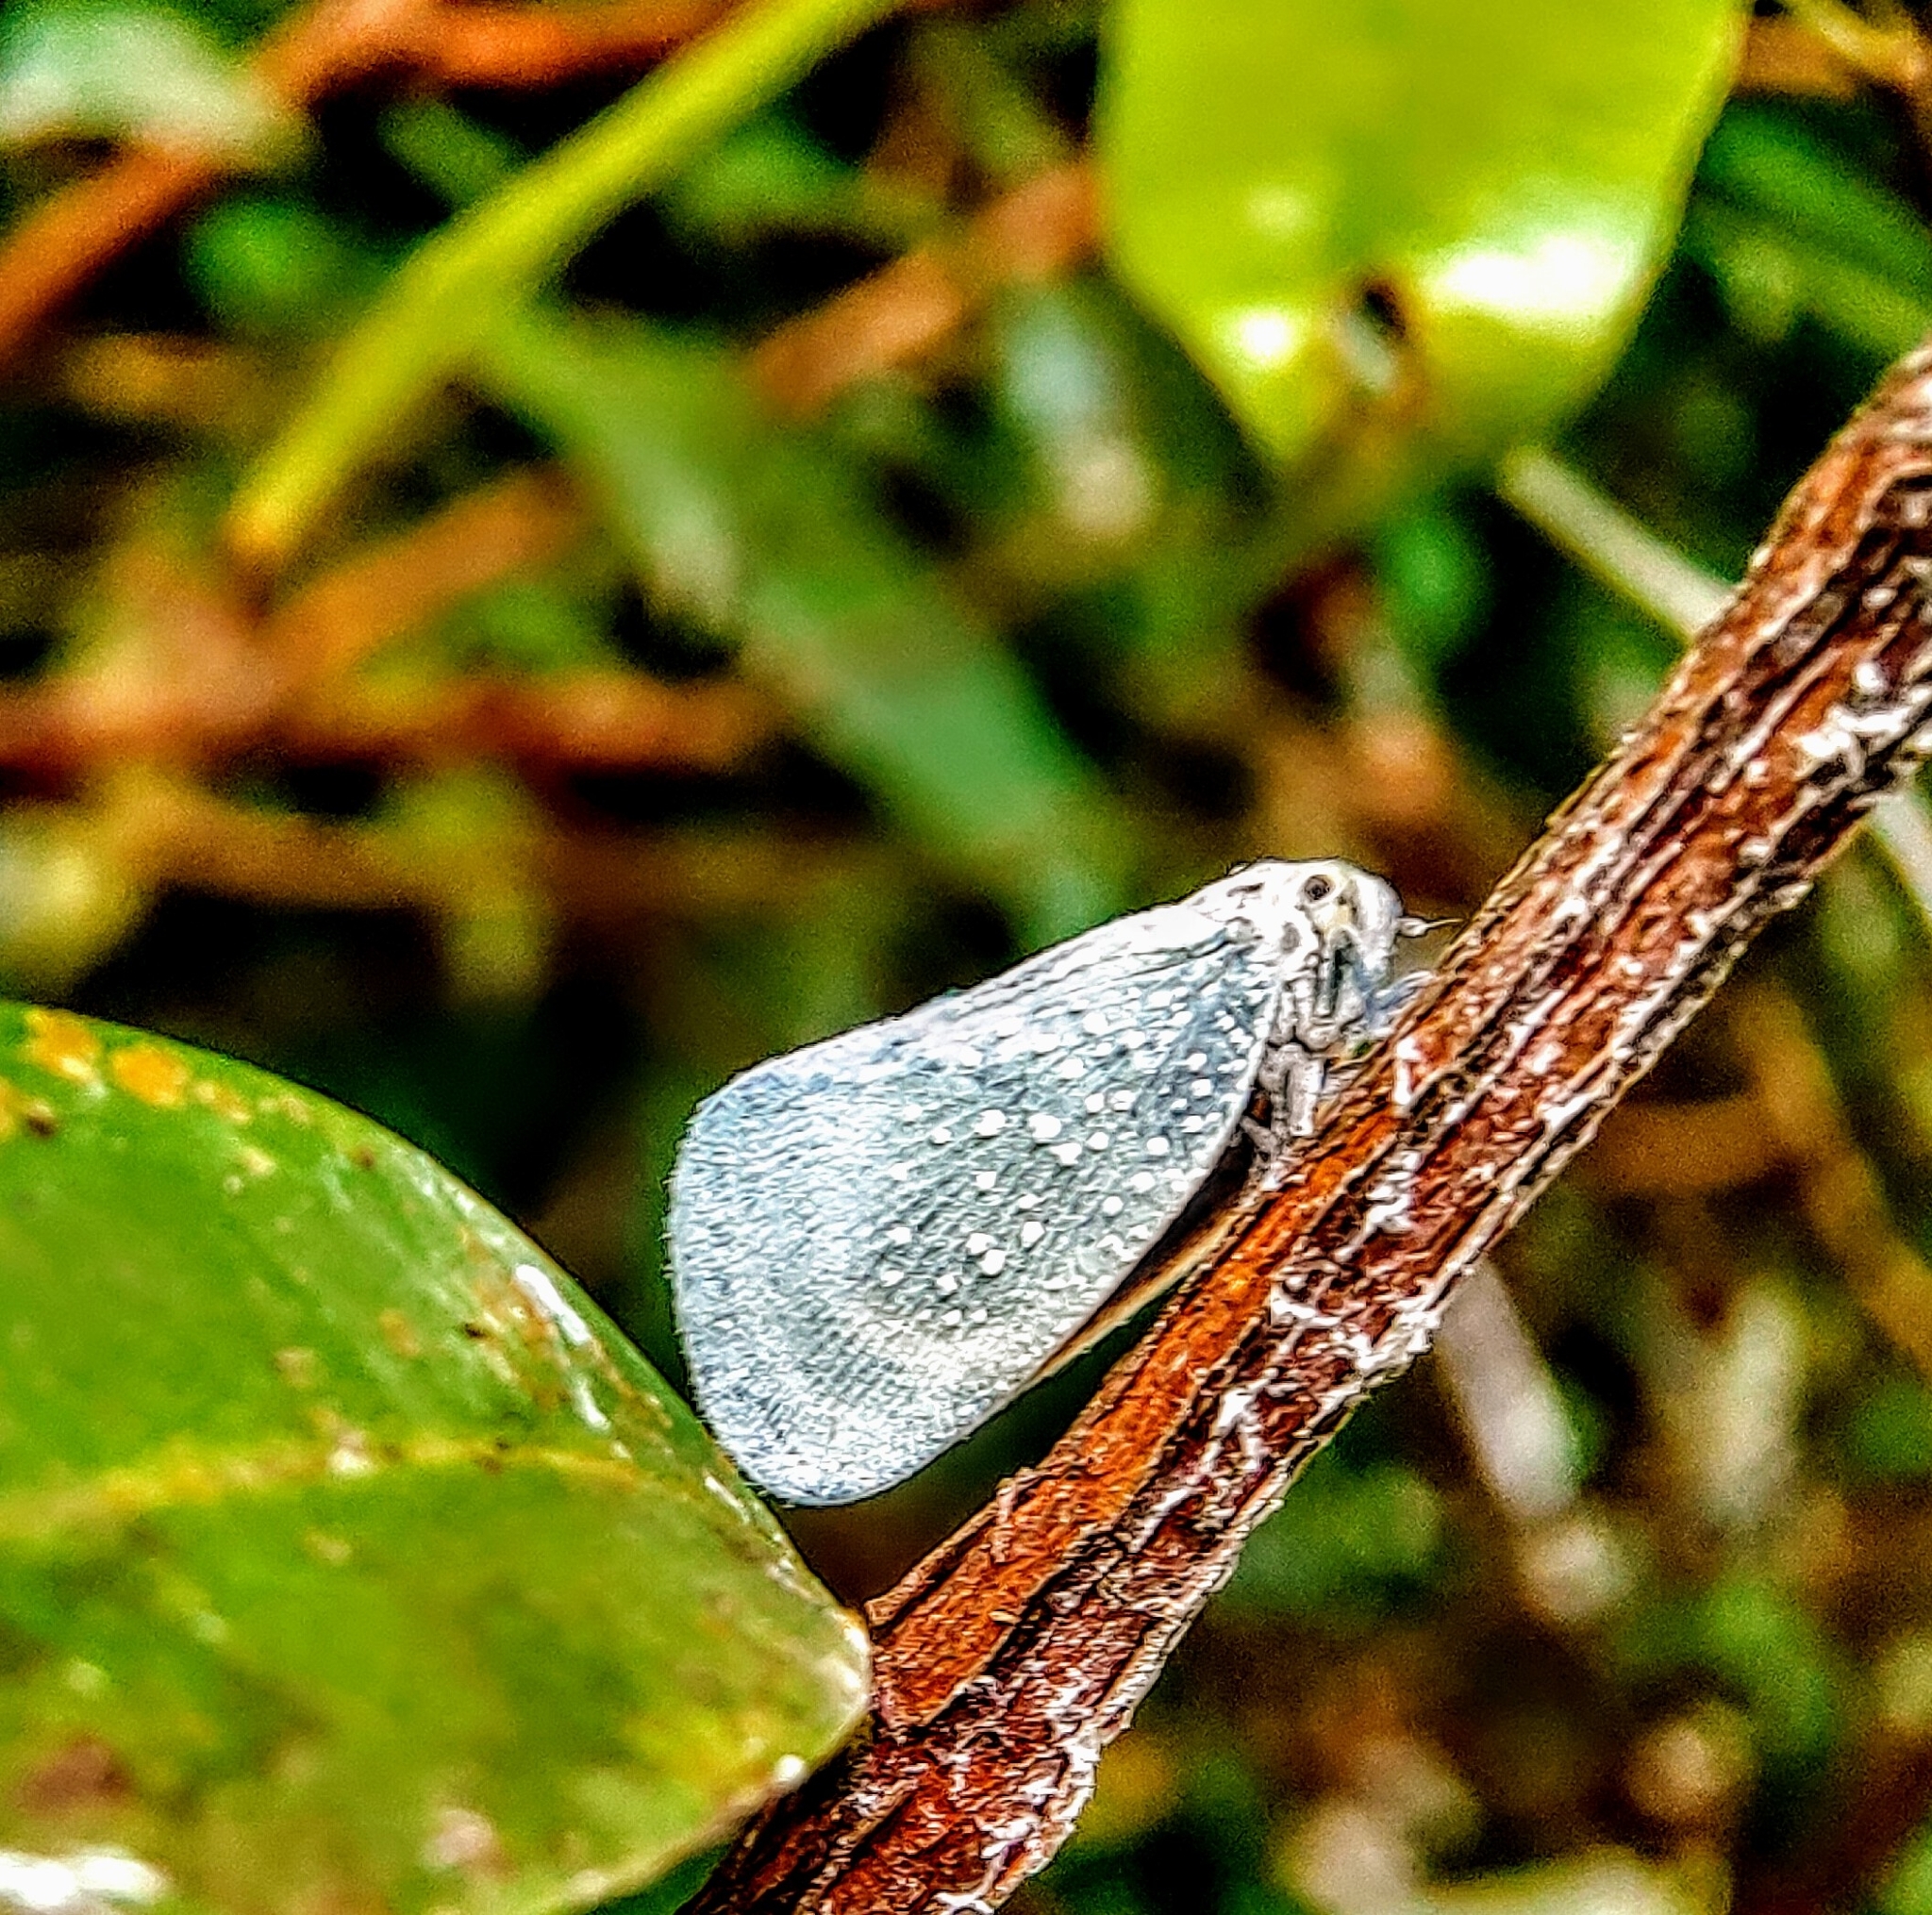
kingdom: Animalia
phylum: Arthropoda
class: Insecta
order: Hemiptera
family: Flatidae
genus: Bythopsyrna
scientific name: Bythopsyrna tineoides
